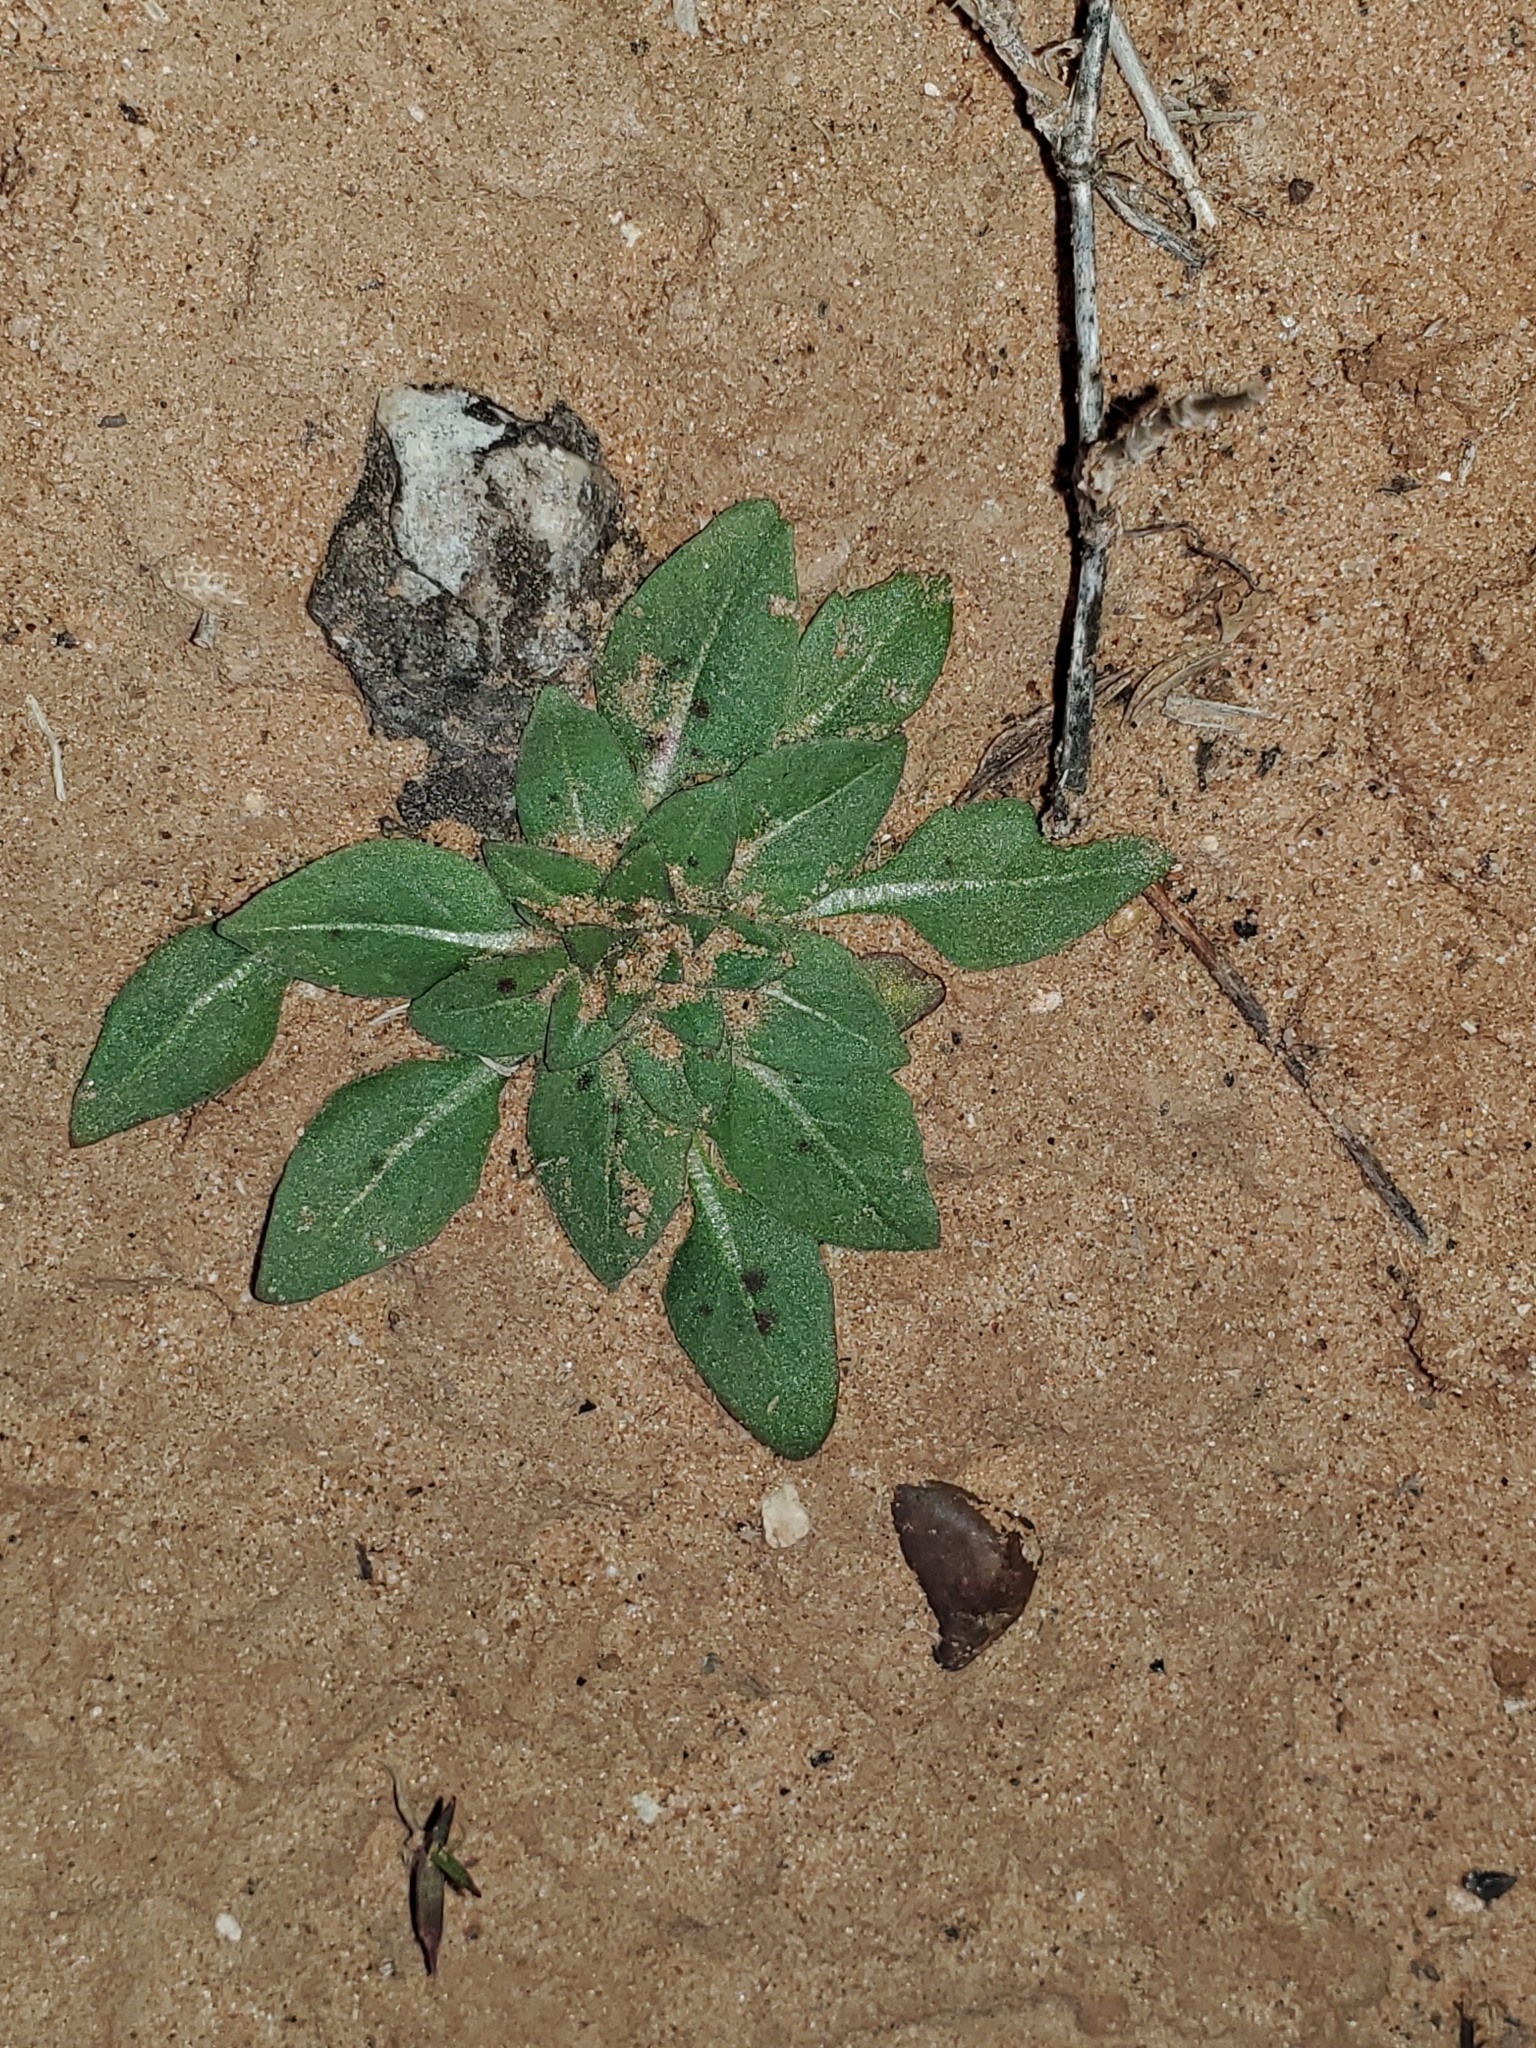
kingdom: Plantae
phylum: Tracheophyta
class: Magnoliopsida
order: Myrtales
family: Onagraceae
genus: Oenothera
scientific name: Oenothera grandis
